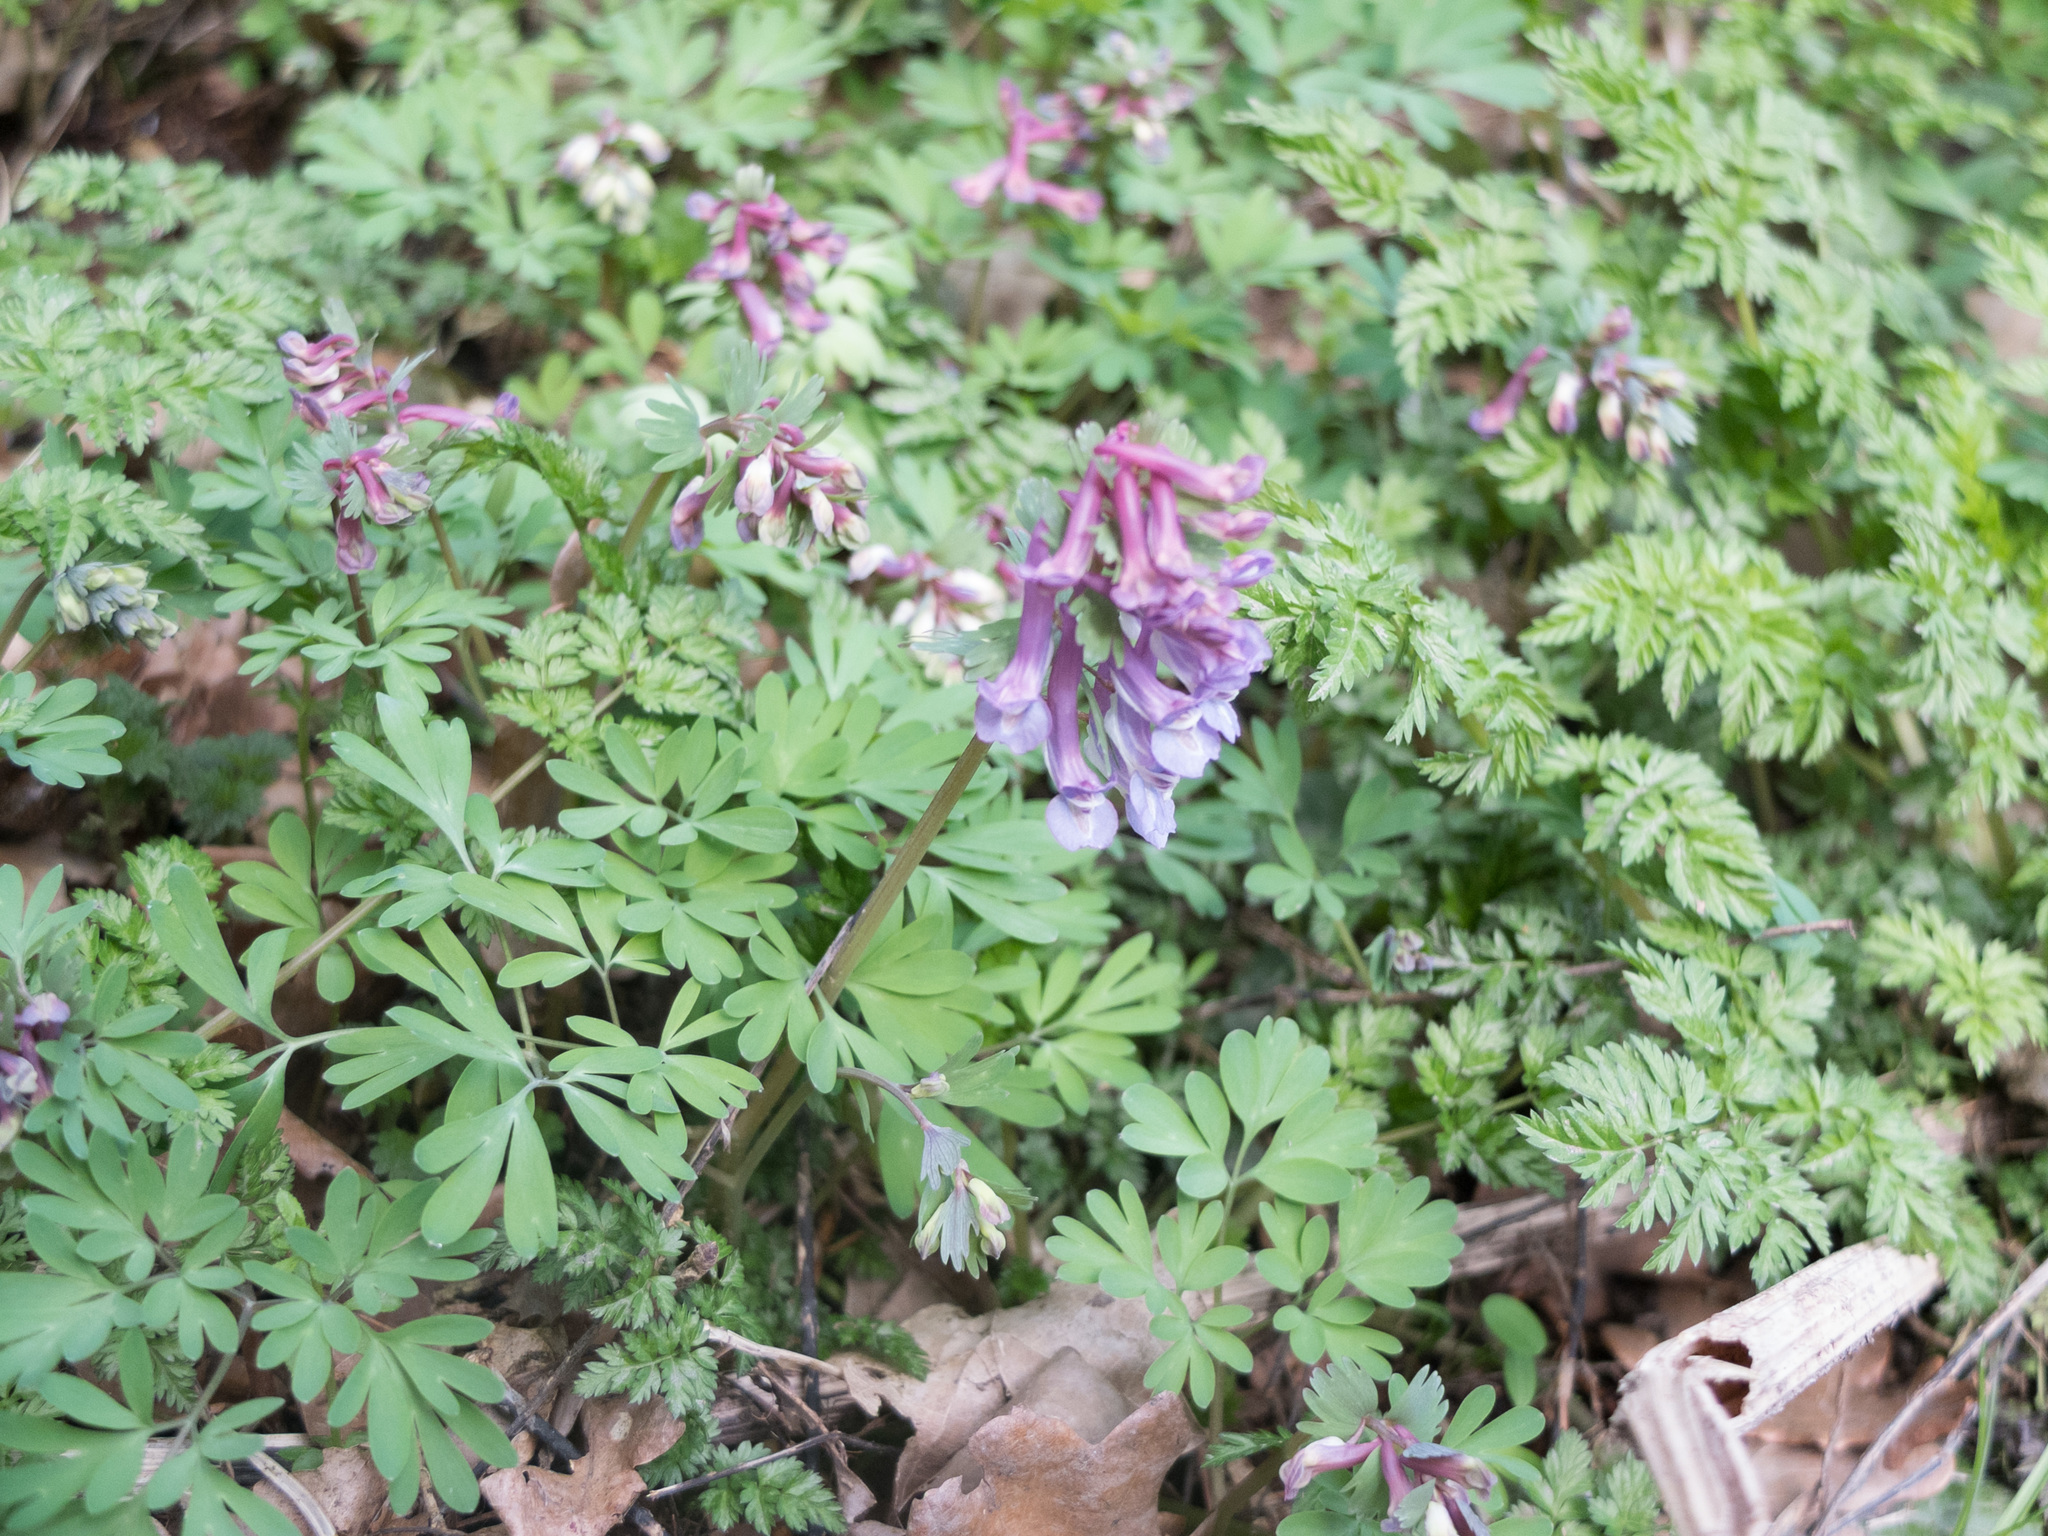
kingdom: Plantae
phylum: Tracheophyta
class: Magnoliopsida
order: Ranunculales
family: Papaveraceae
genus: Corydalis
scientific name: Corydalis solida
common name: Bird-in-a-bush
